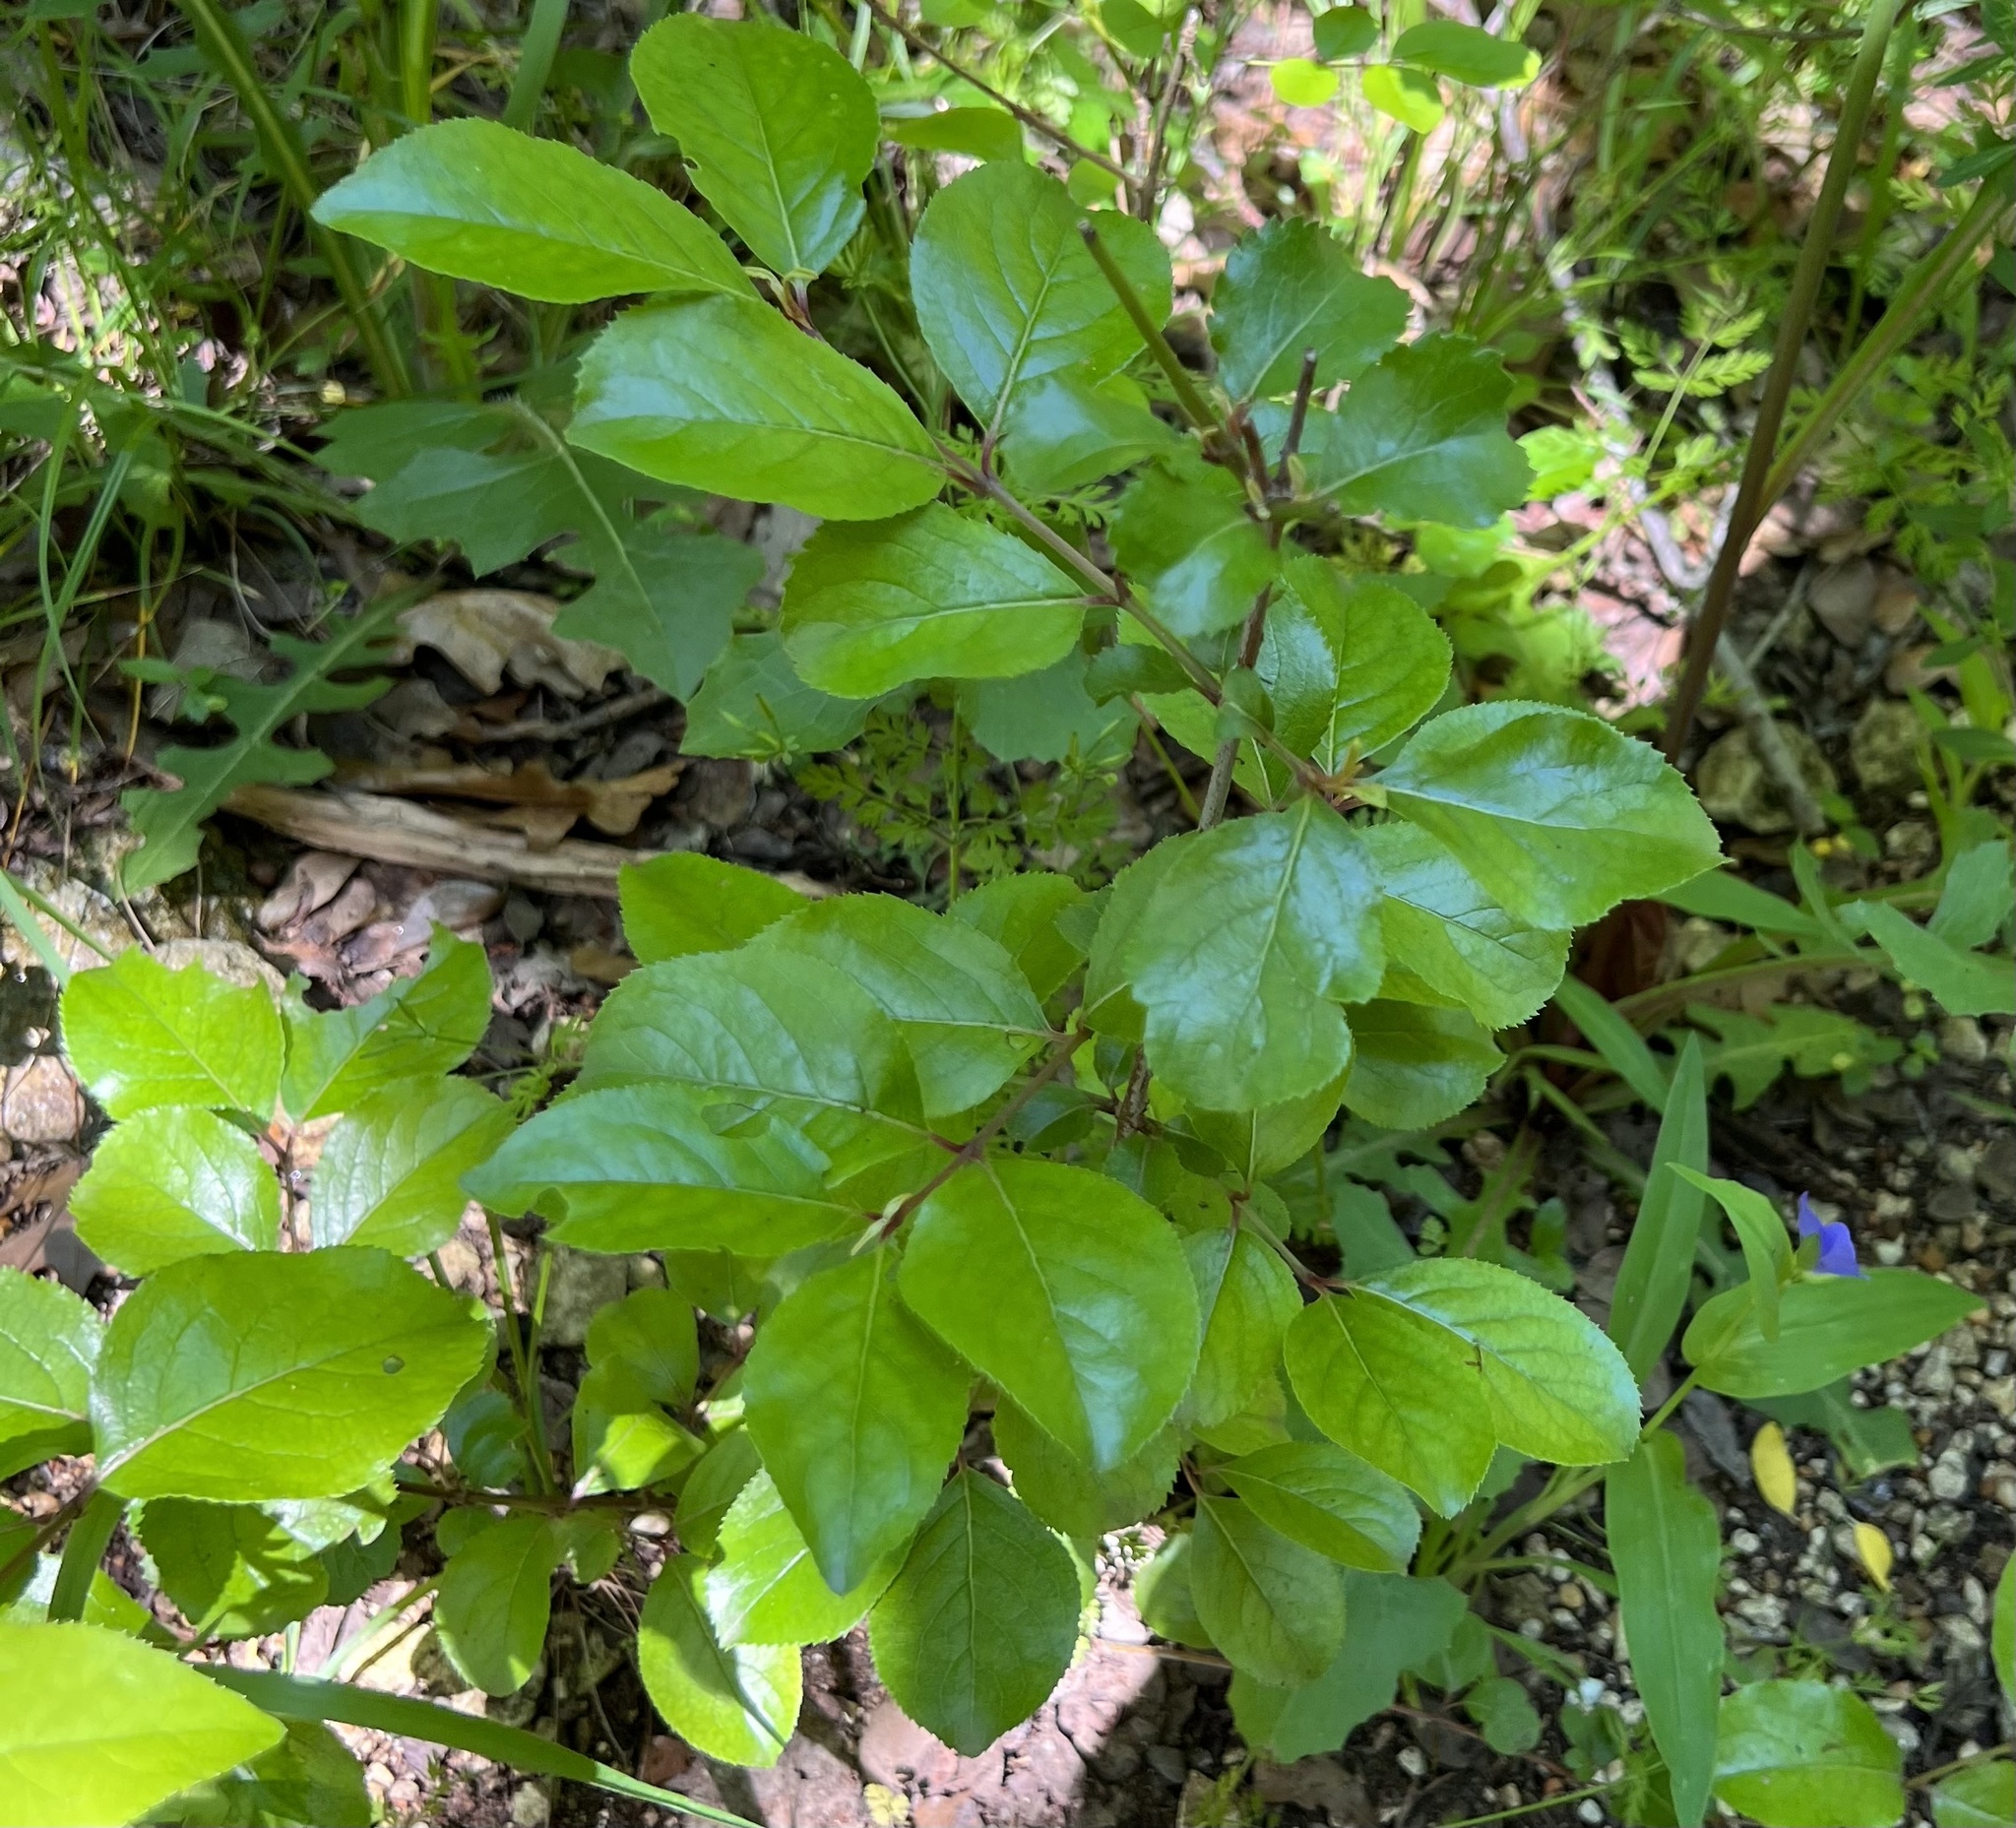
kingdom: Plantae
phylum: Tracheophyta
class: Magnoliopsida
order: Dipsacales
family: Viburnaceae
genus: Viburnum
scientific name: Viburnum rufidulum
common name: Blue haw
